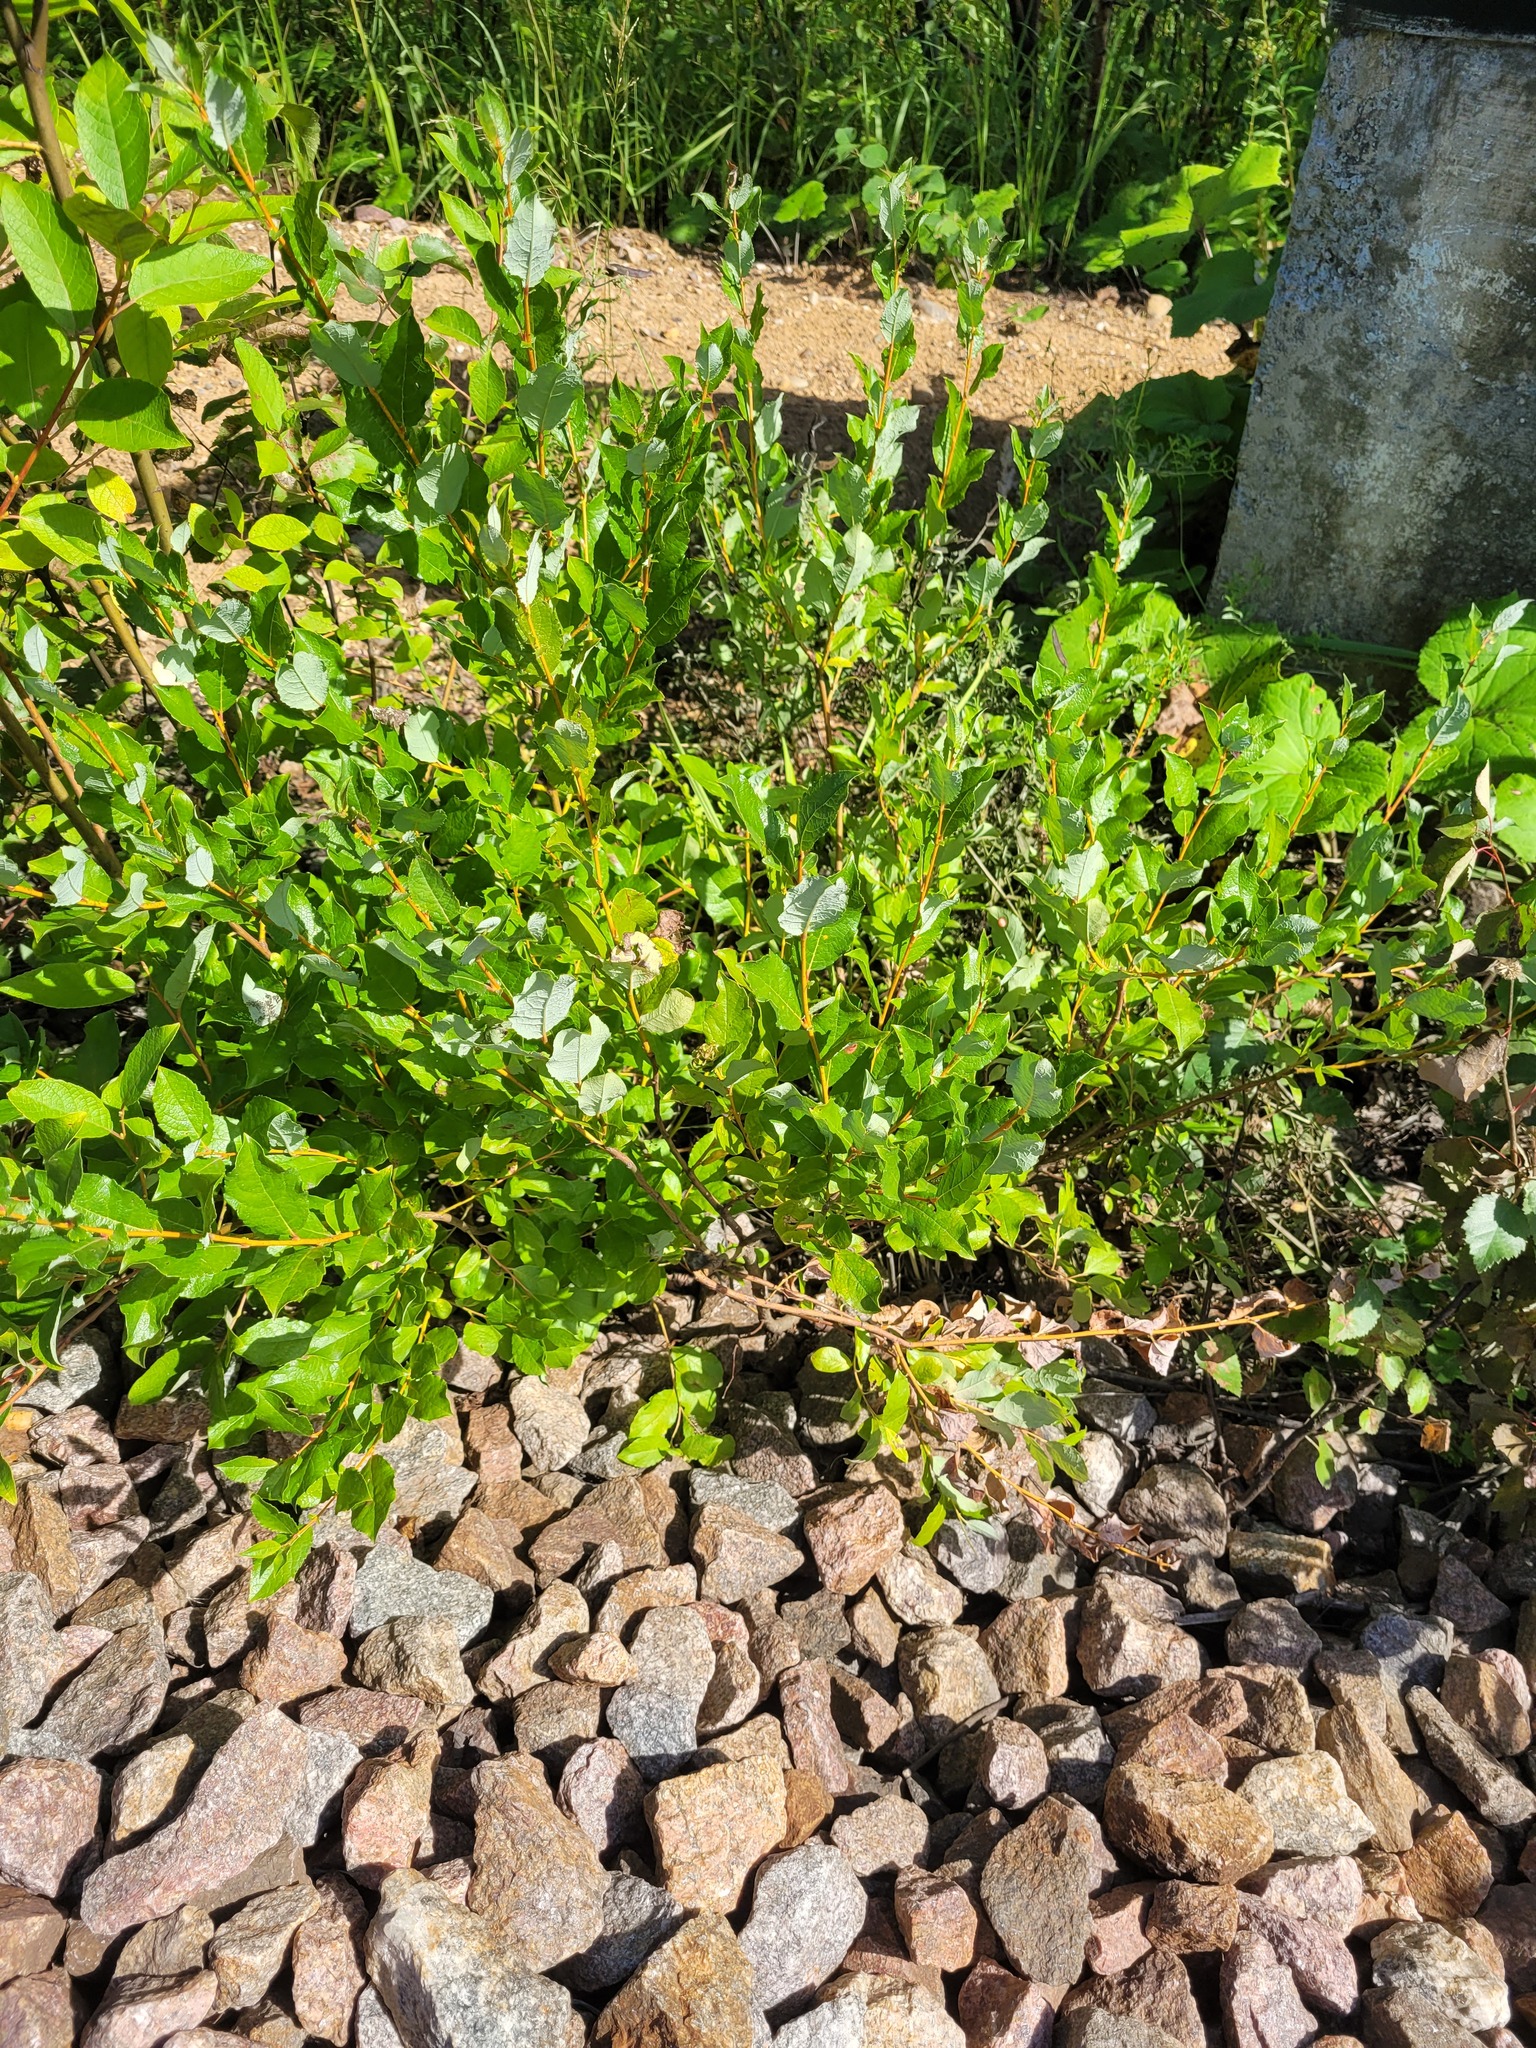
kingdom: Plantae
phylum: Tracheophyta
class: Magnoliopsida
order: Malpighiales
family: Salicaceae
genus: Salix
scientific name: Salix starkeana
